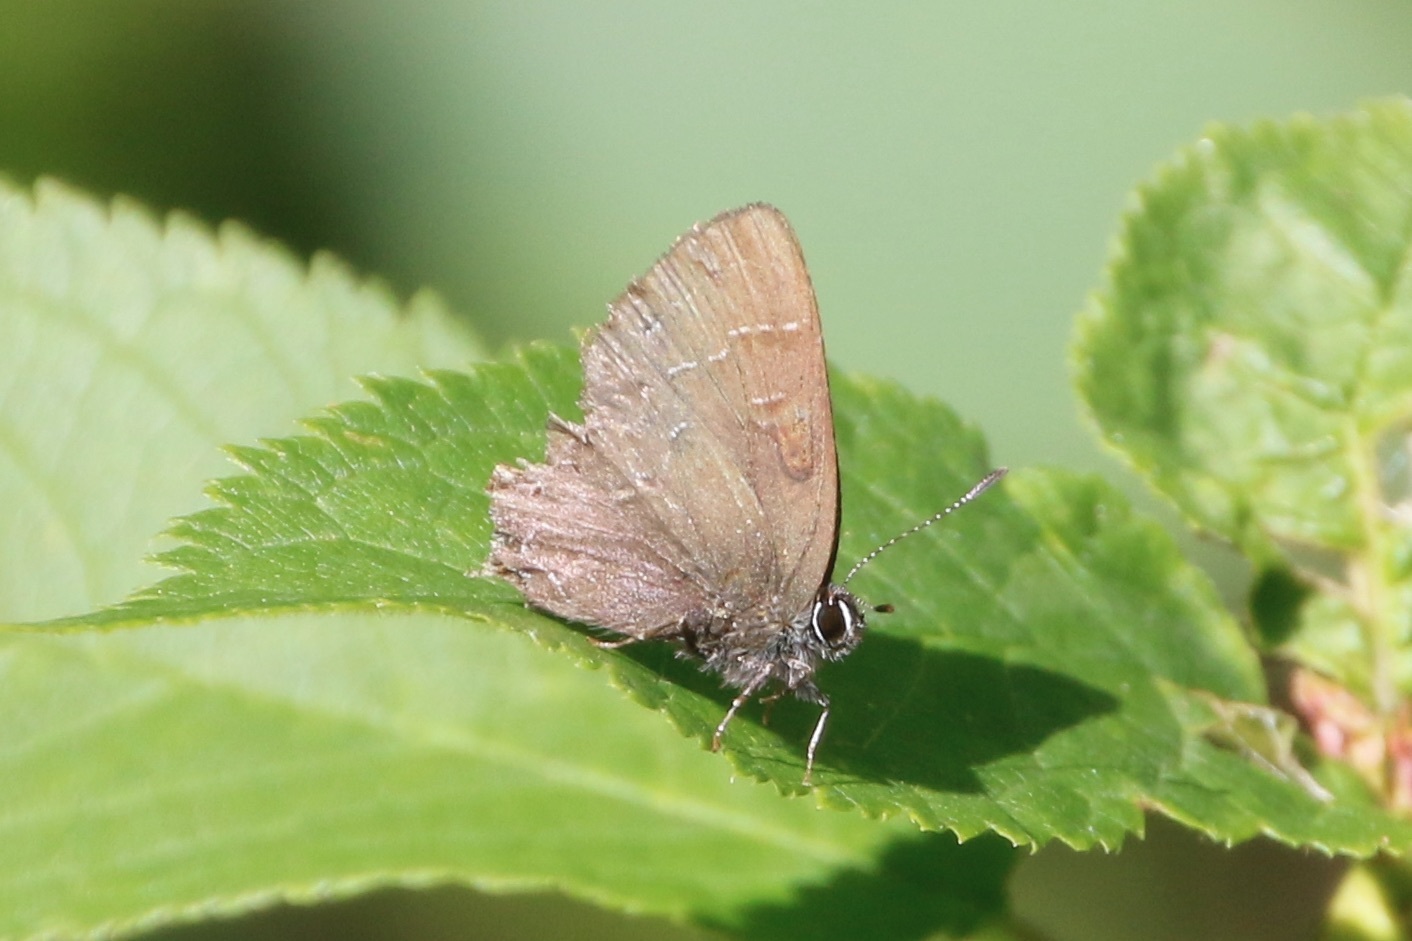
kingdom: Animalia
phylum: Arthropoda
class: Insecta
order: Lepidoptera
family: Lycaenidae
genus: Satyrium
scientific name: Satyrium calanus
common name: Banded hairstreak
